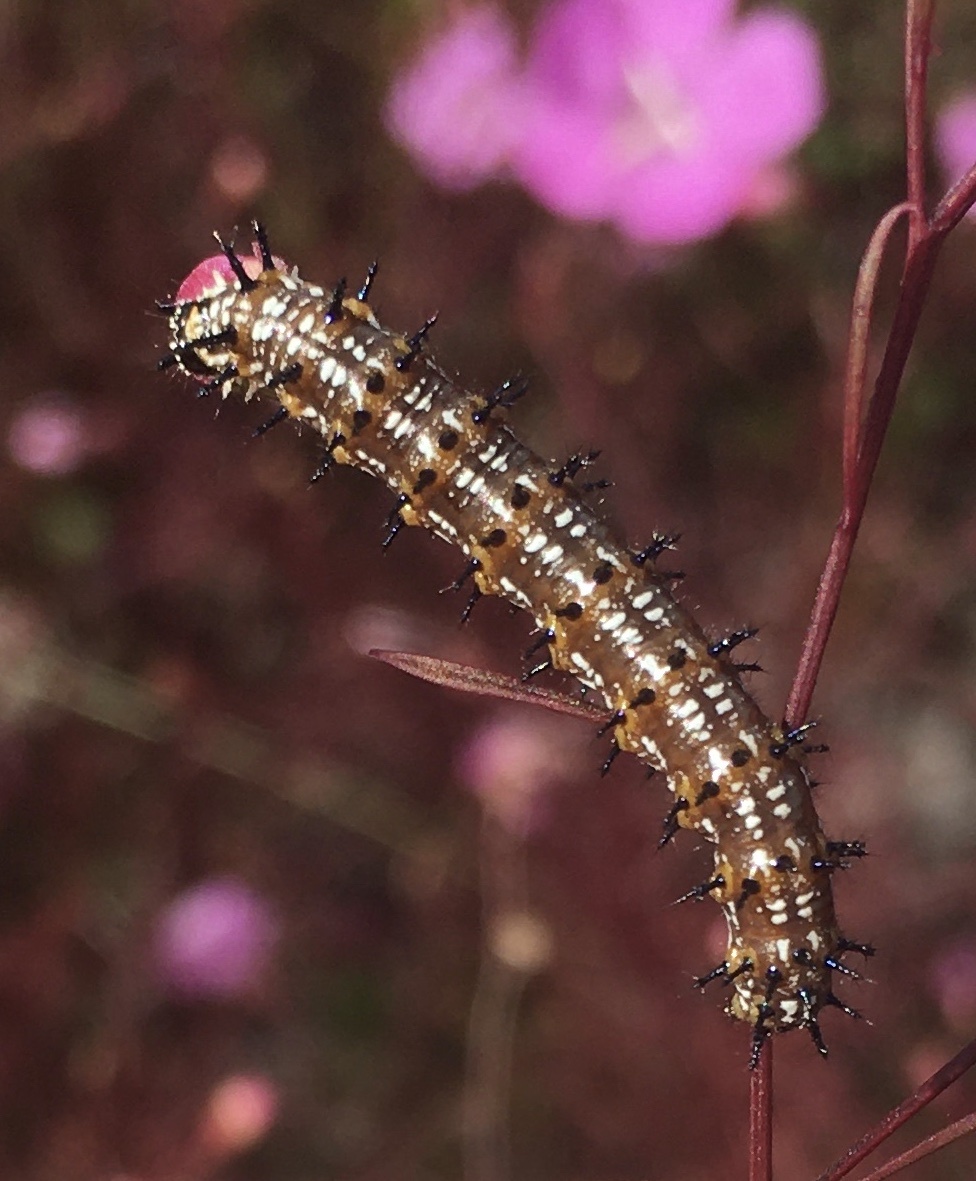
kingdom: Animalia
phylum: Arthropoda
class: Insecta
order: Lepidoptera
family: Nymphalidae
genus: Junonia
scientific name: Junonia coenia
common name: Common buckeye
